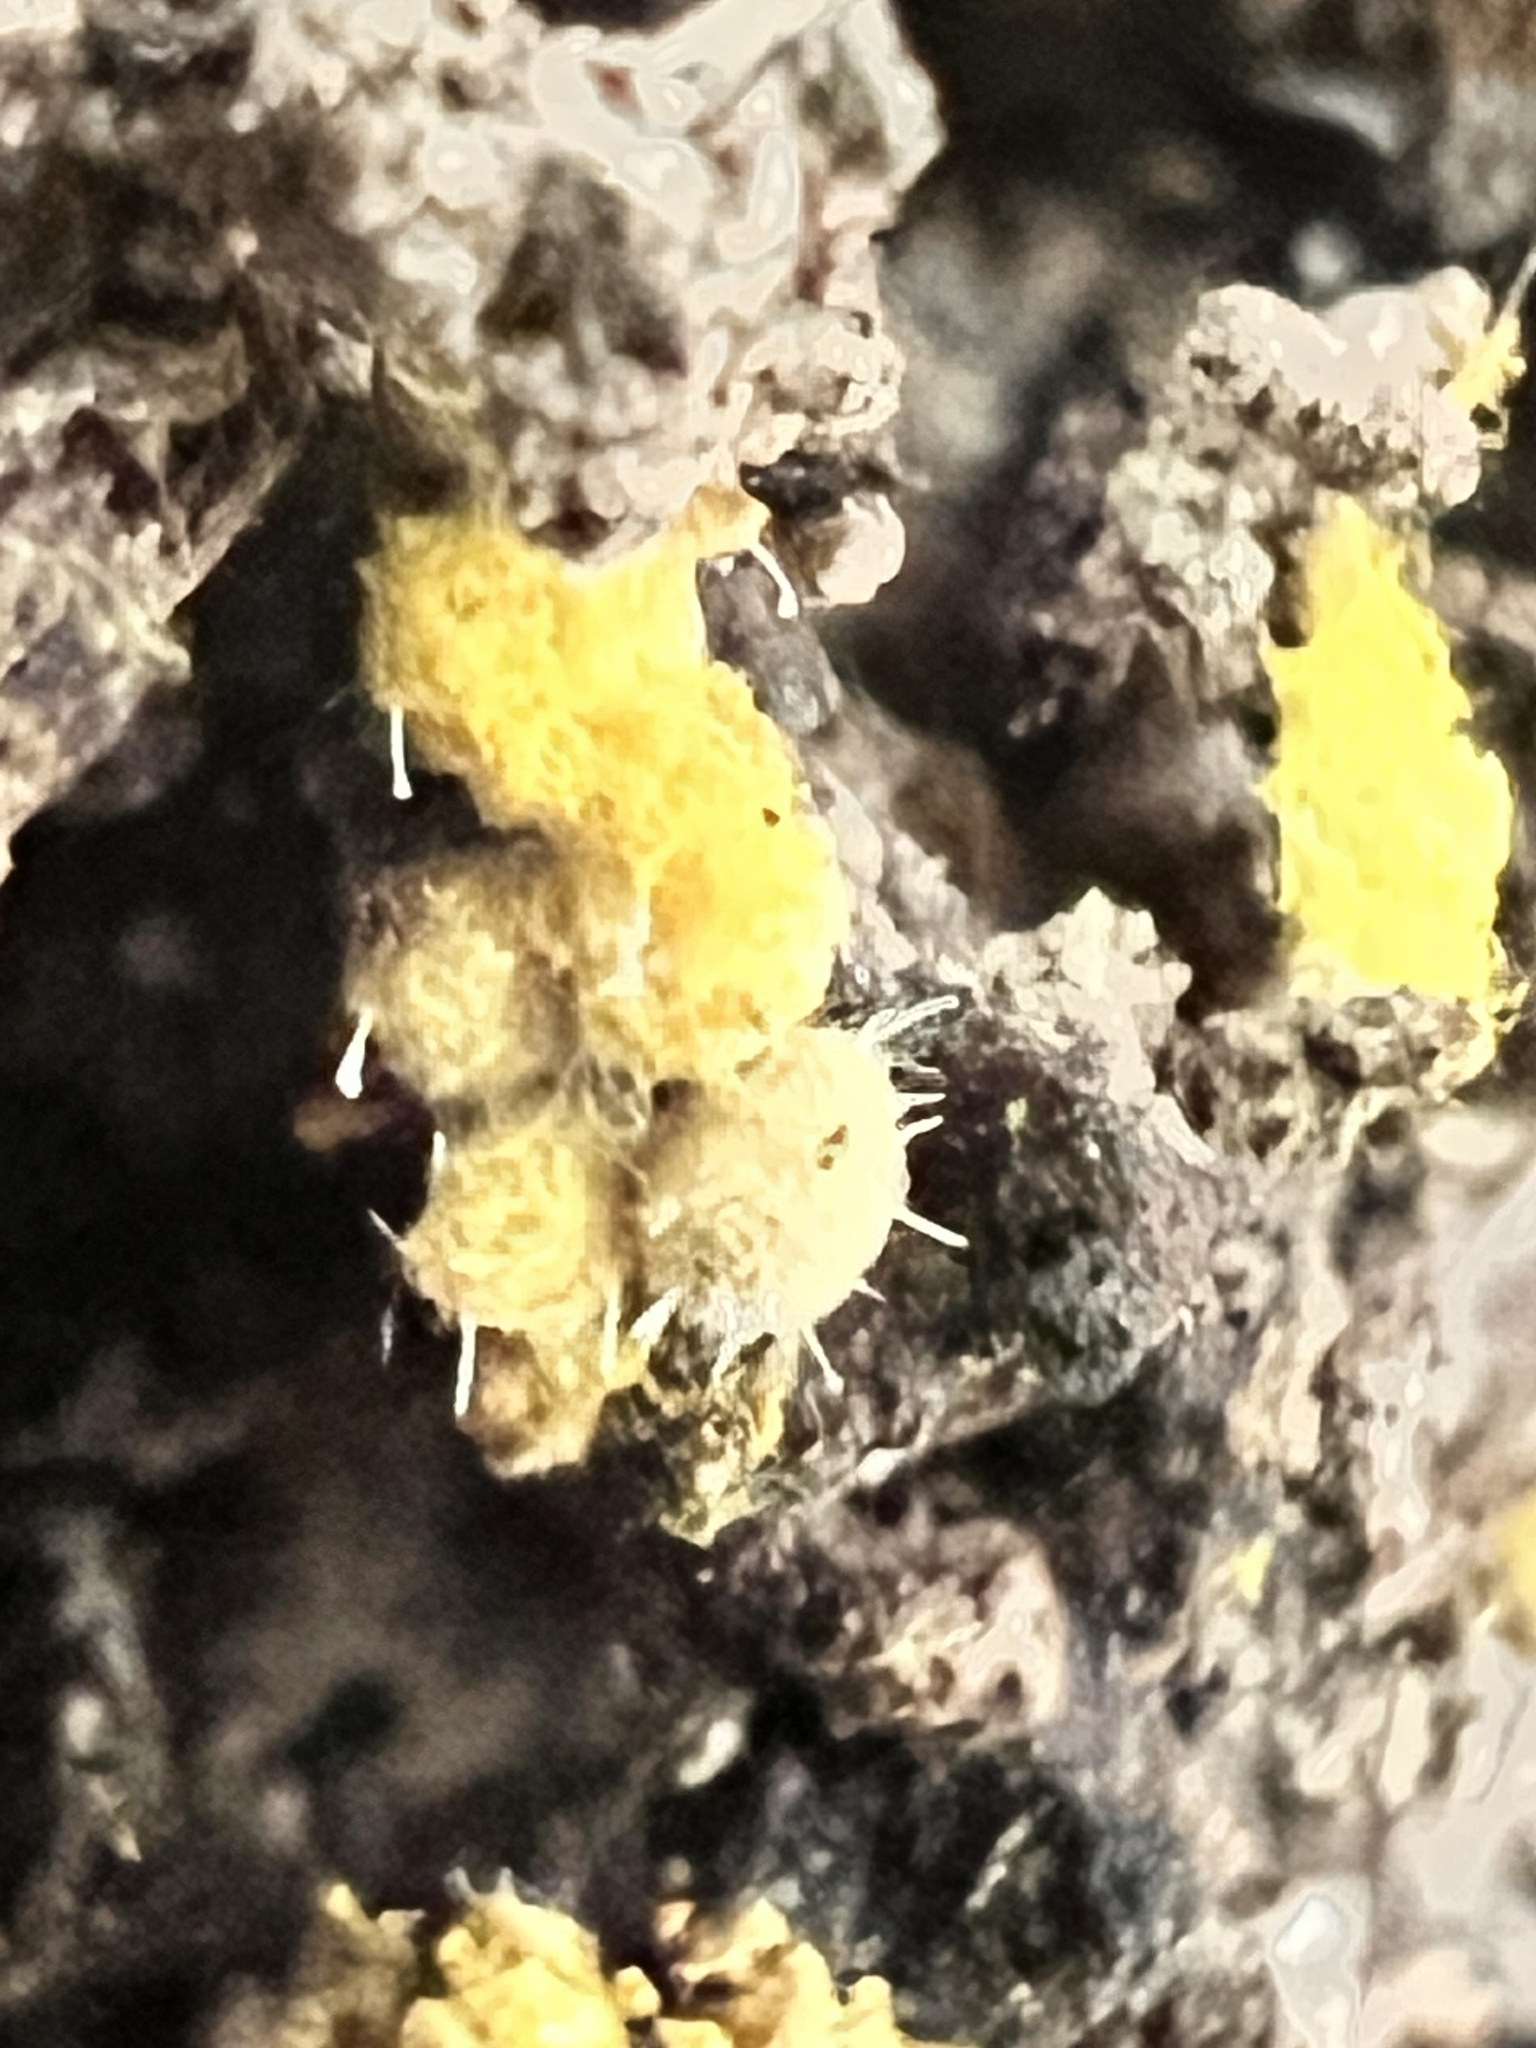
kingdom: Fungi
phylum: Ascomycota
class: Sordariomycetes
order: Hypocreales
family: Ophiocordycipitaceae
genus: Polycephalomyces
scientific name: Polycephalomyces tomentosus
